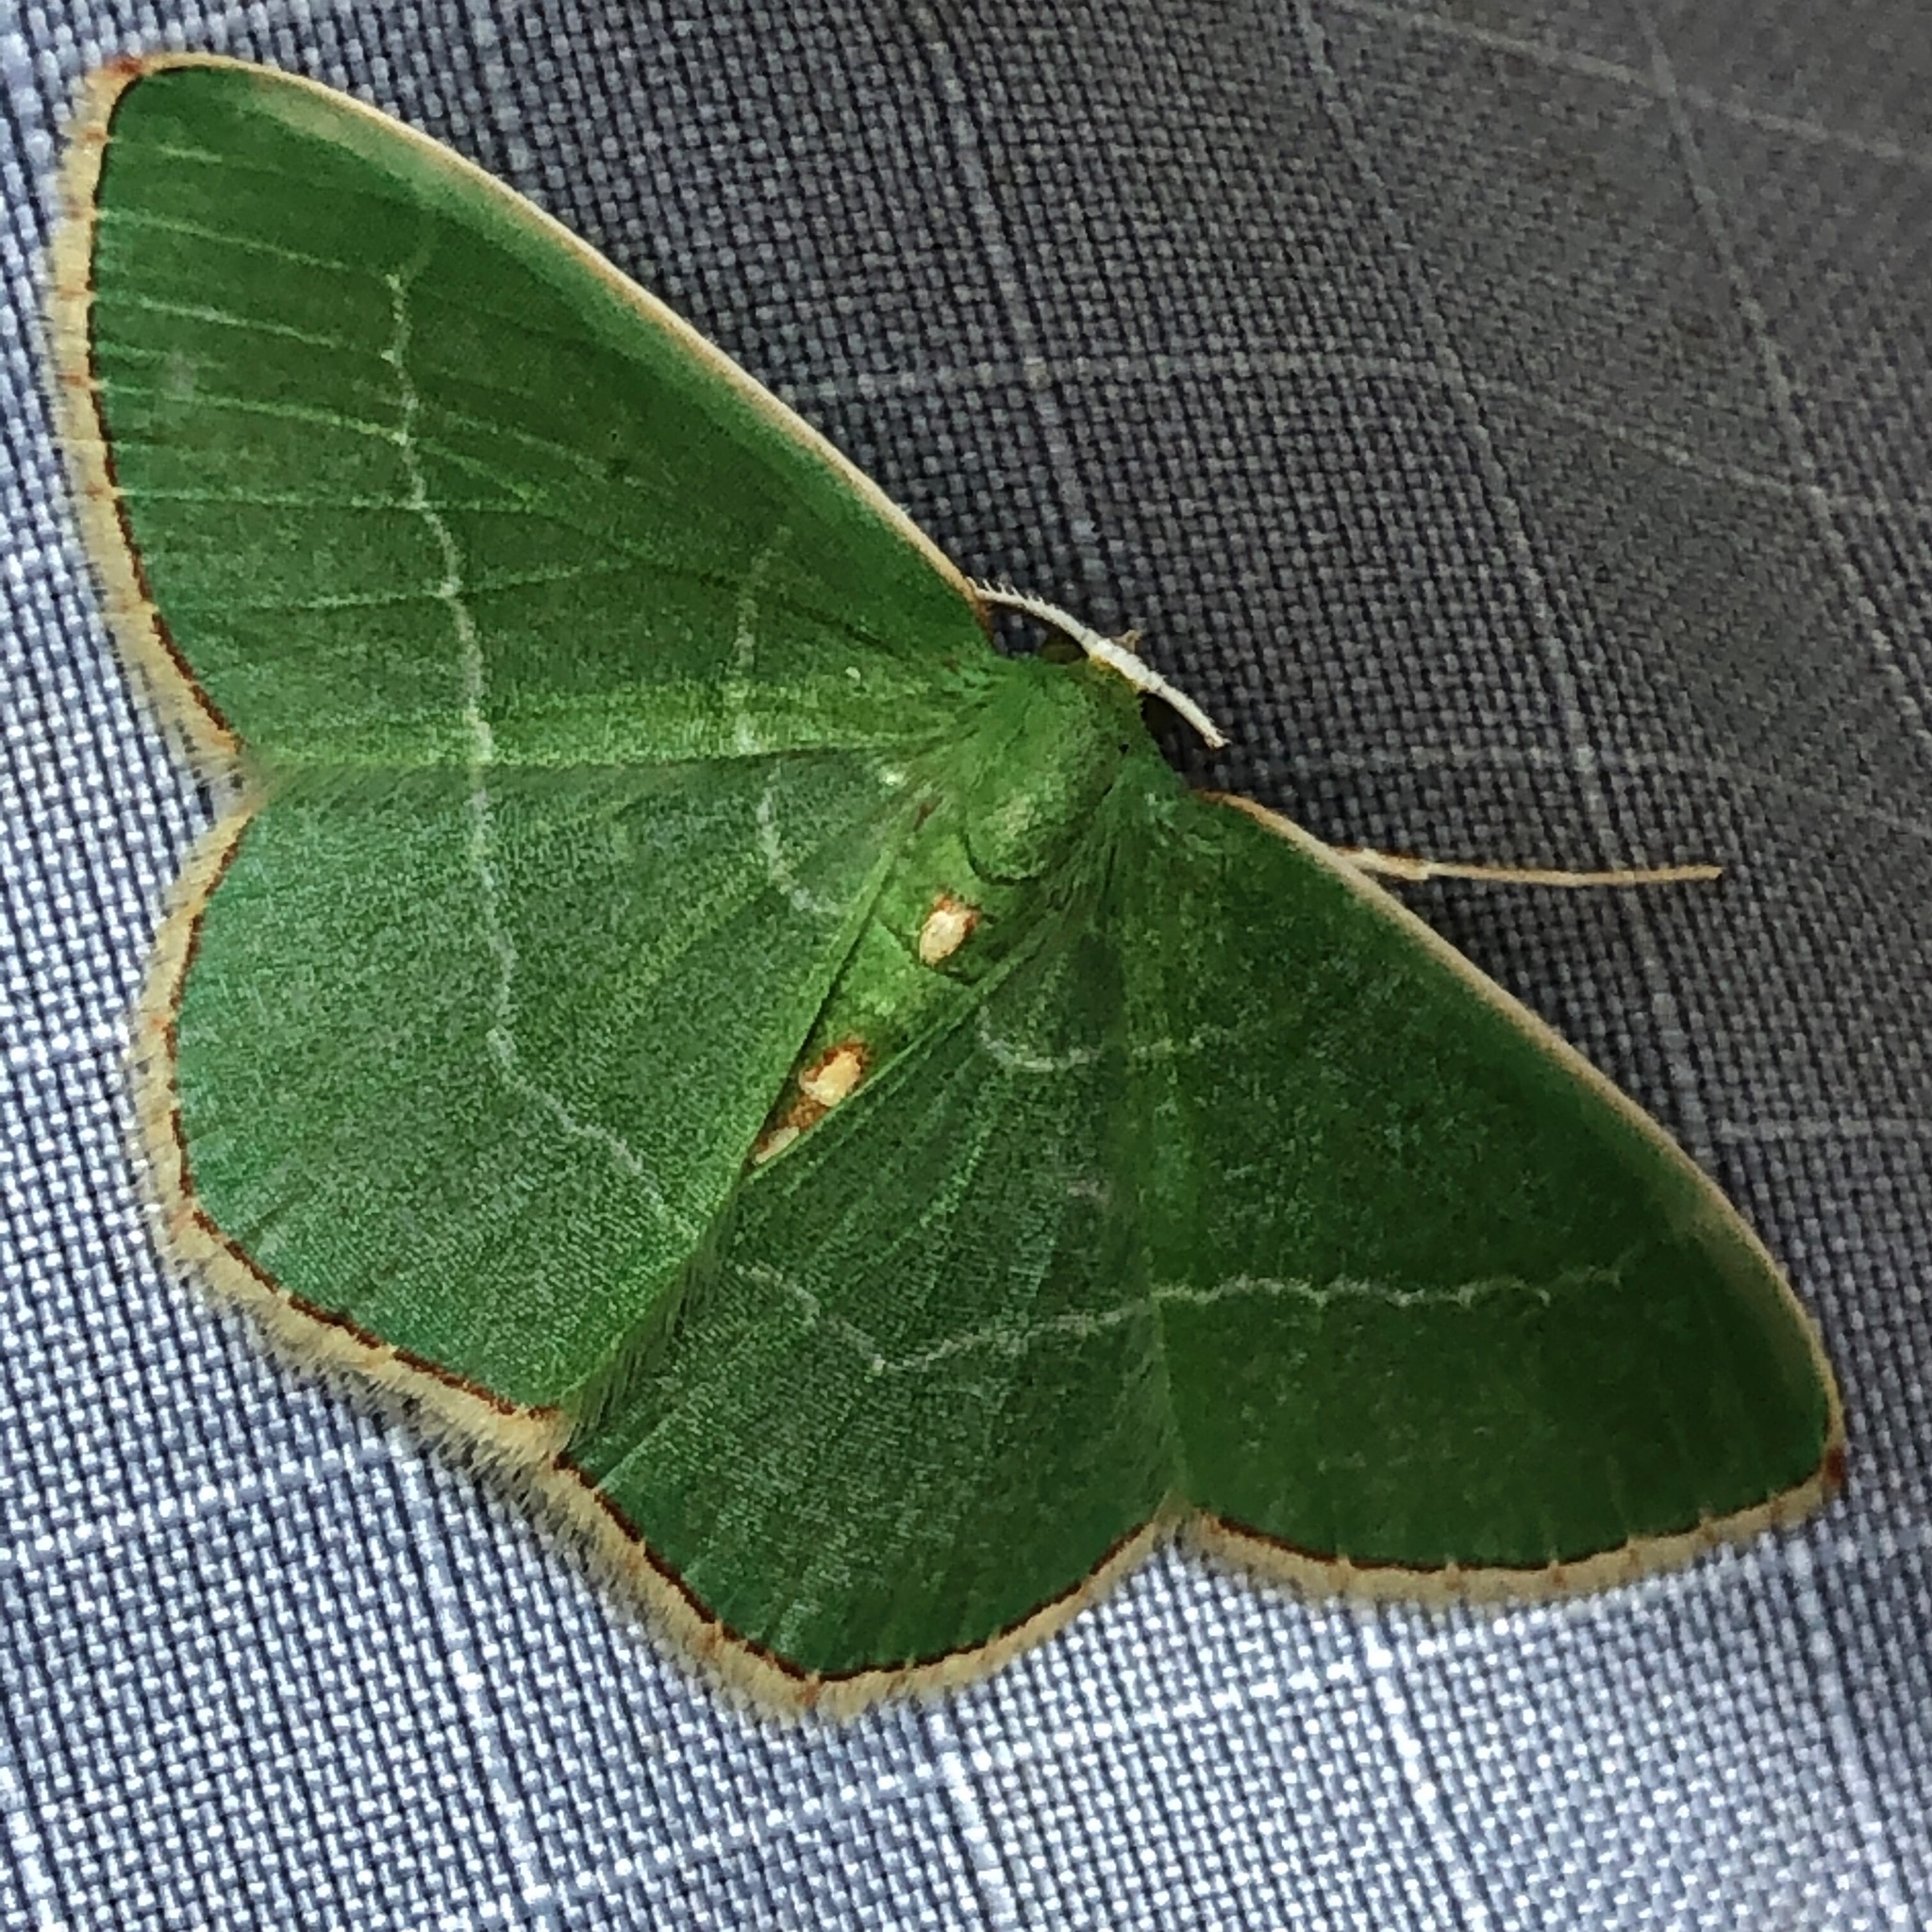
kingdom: Animalia
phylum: Arthropoda
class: Insecta
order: Lepidoptera
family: Geometridae
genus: Nemoria
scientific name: Nemoria bistriaria
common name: Red-fringed emerald
